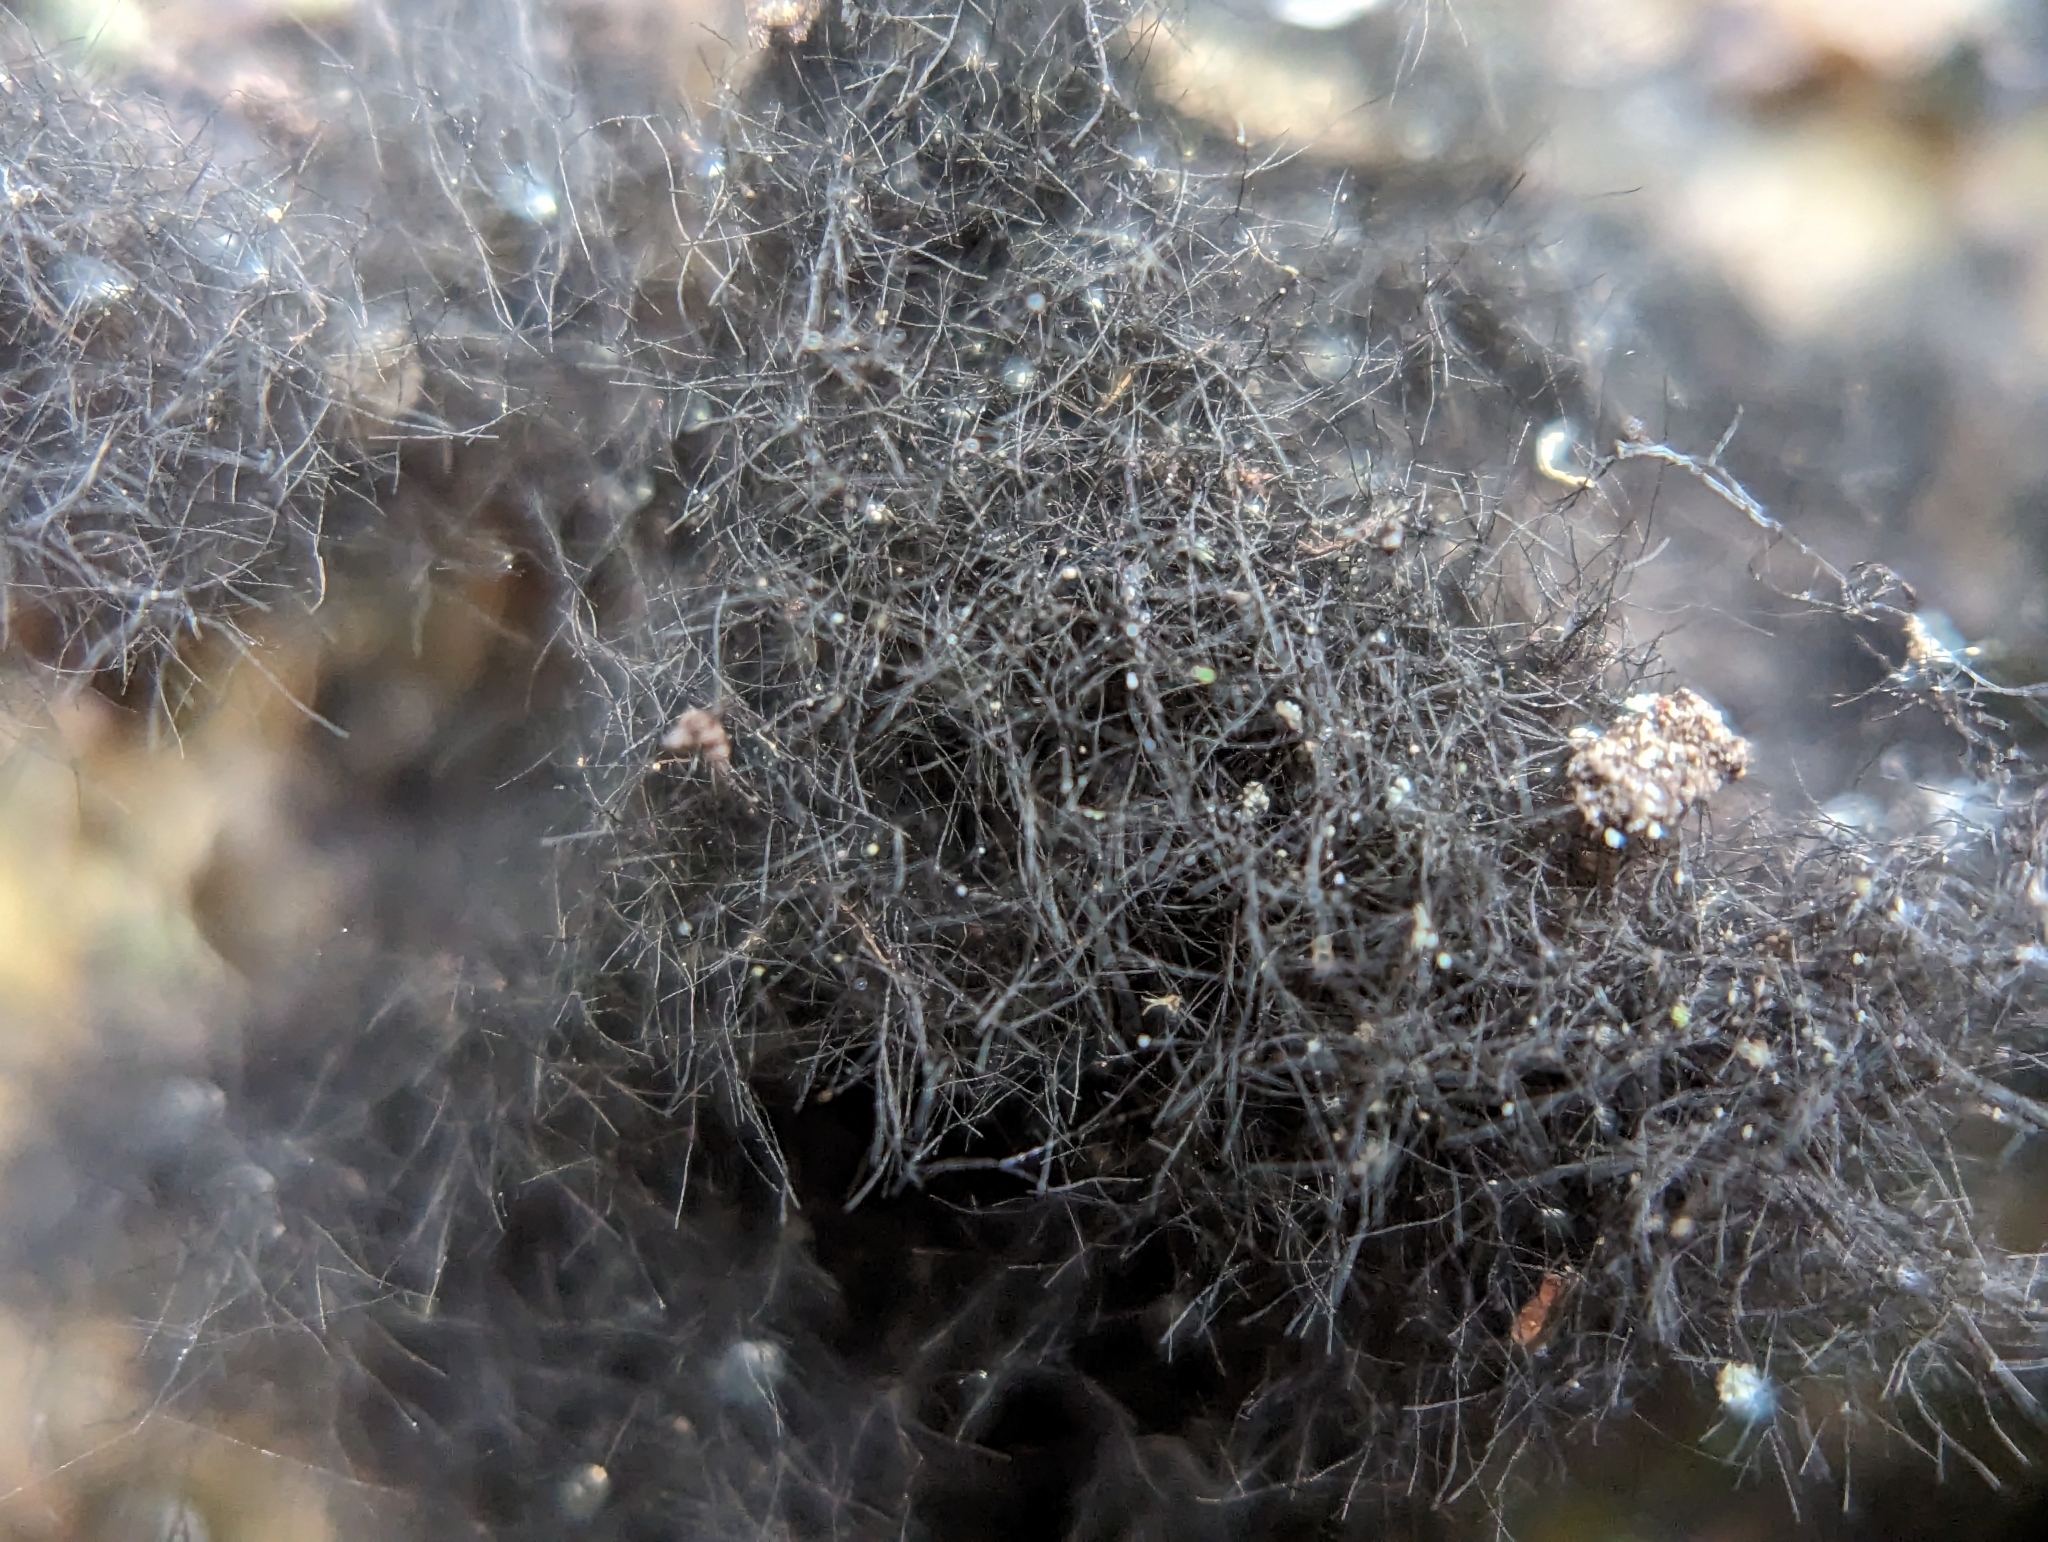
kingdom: Fungi
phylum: Ascomycota
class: Eurotiomycetes
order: Chaetothyriales
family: Herpotrichiellaceae
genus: Rhacodiopsis
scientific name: Rhacodiopsis rupestris
